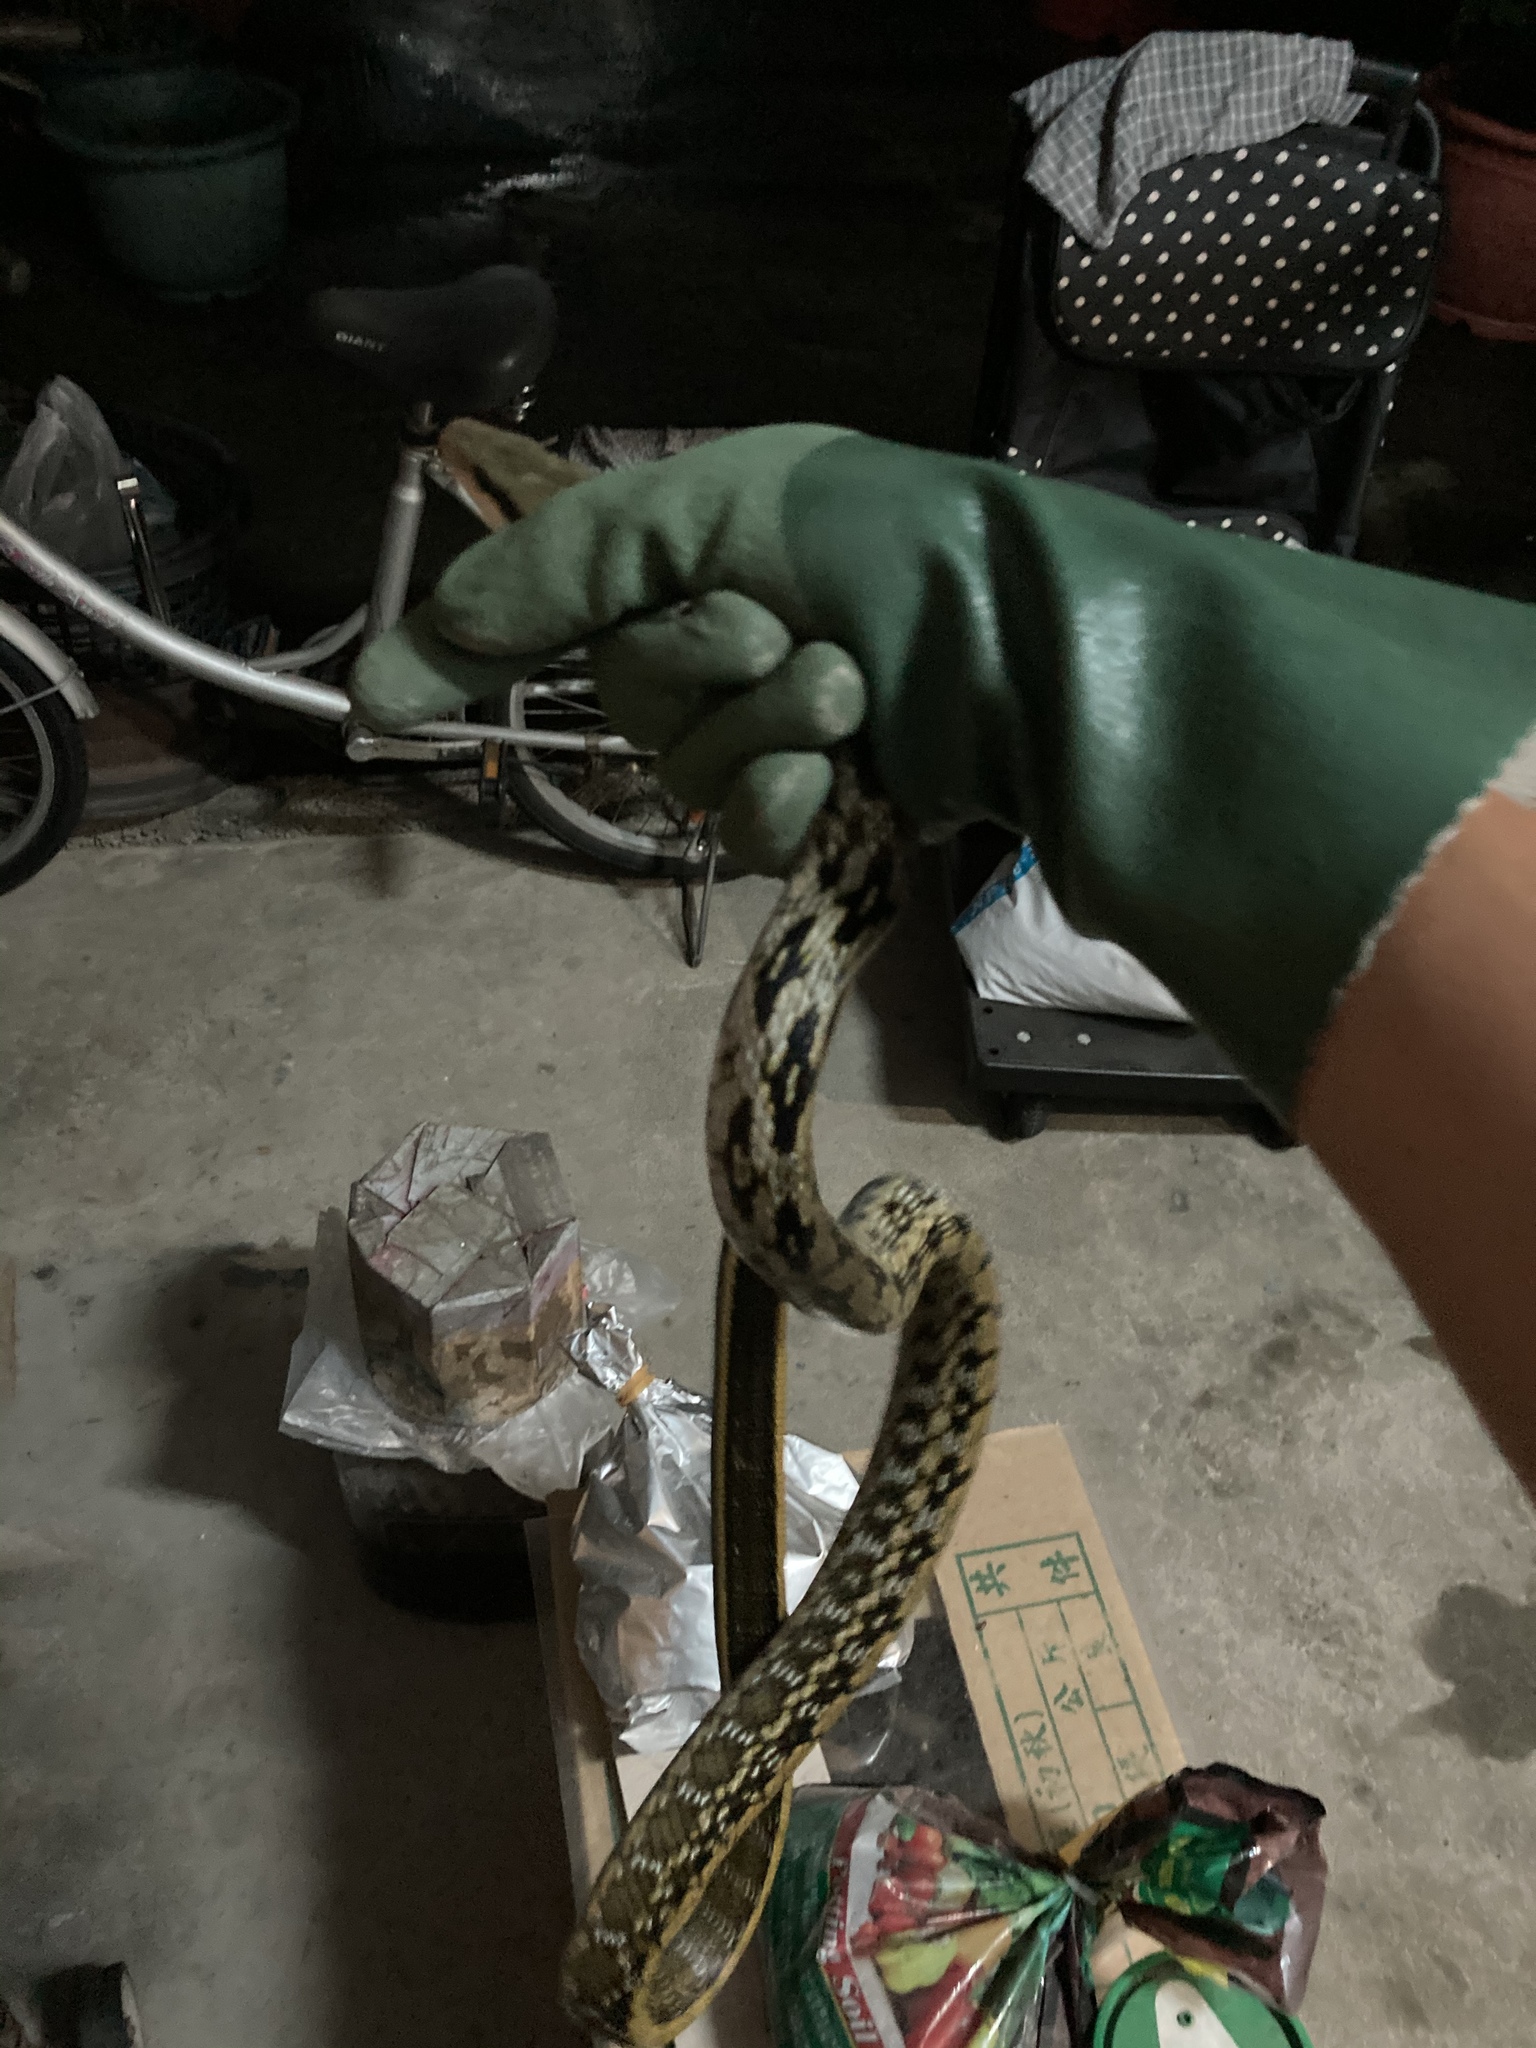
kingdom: Animalia
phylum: Chordata
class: Squamata
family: Colubridae
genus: Elaphe
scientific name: Elaphe taeniura
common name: Beauty snake
